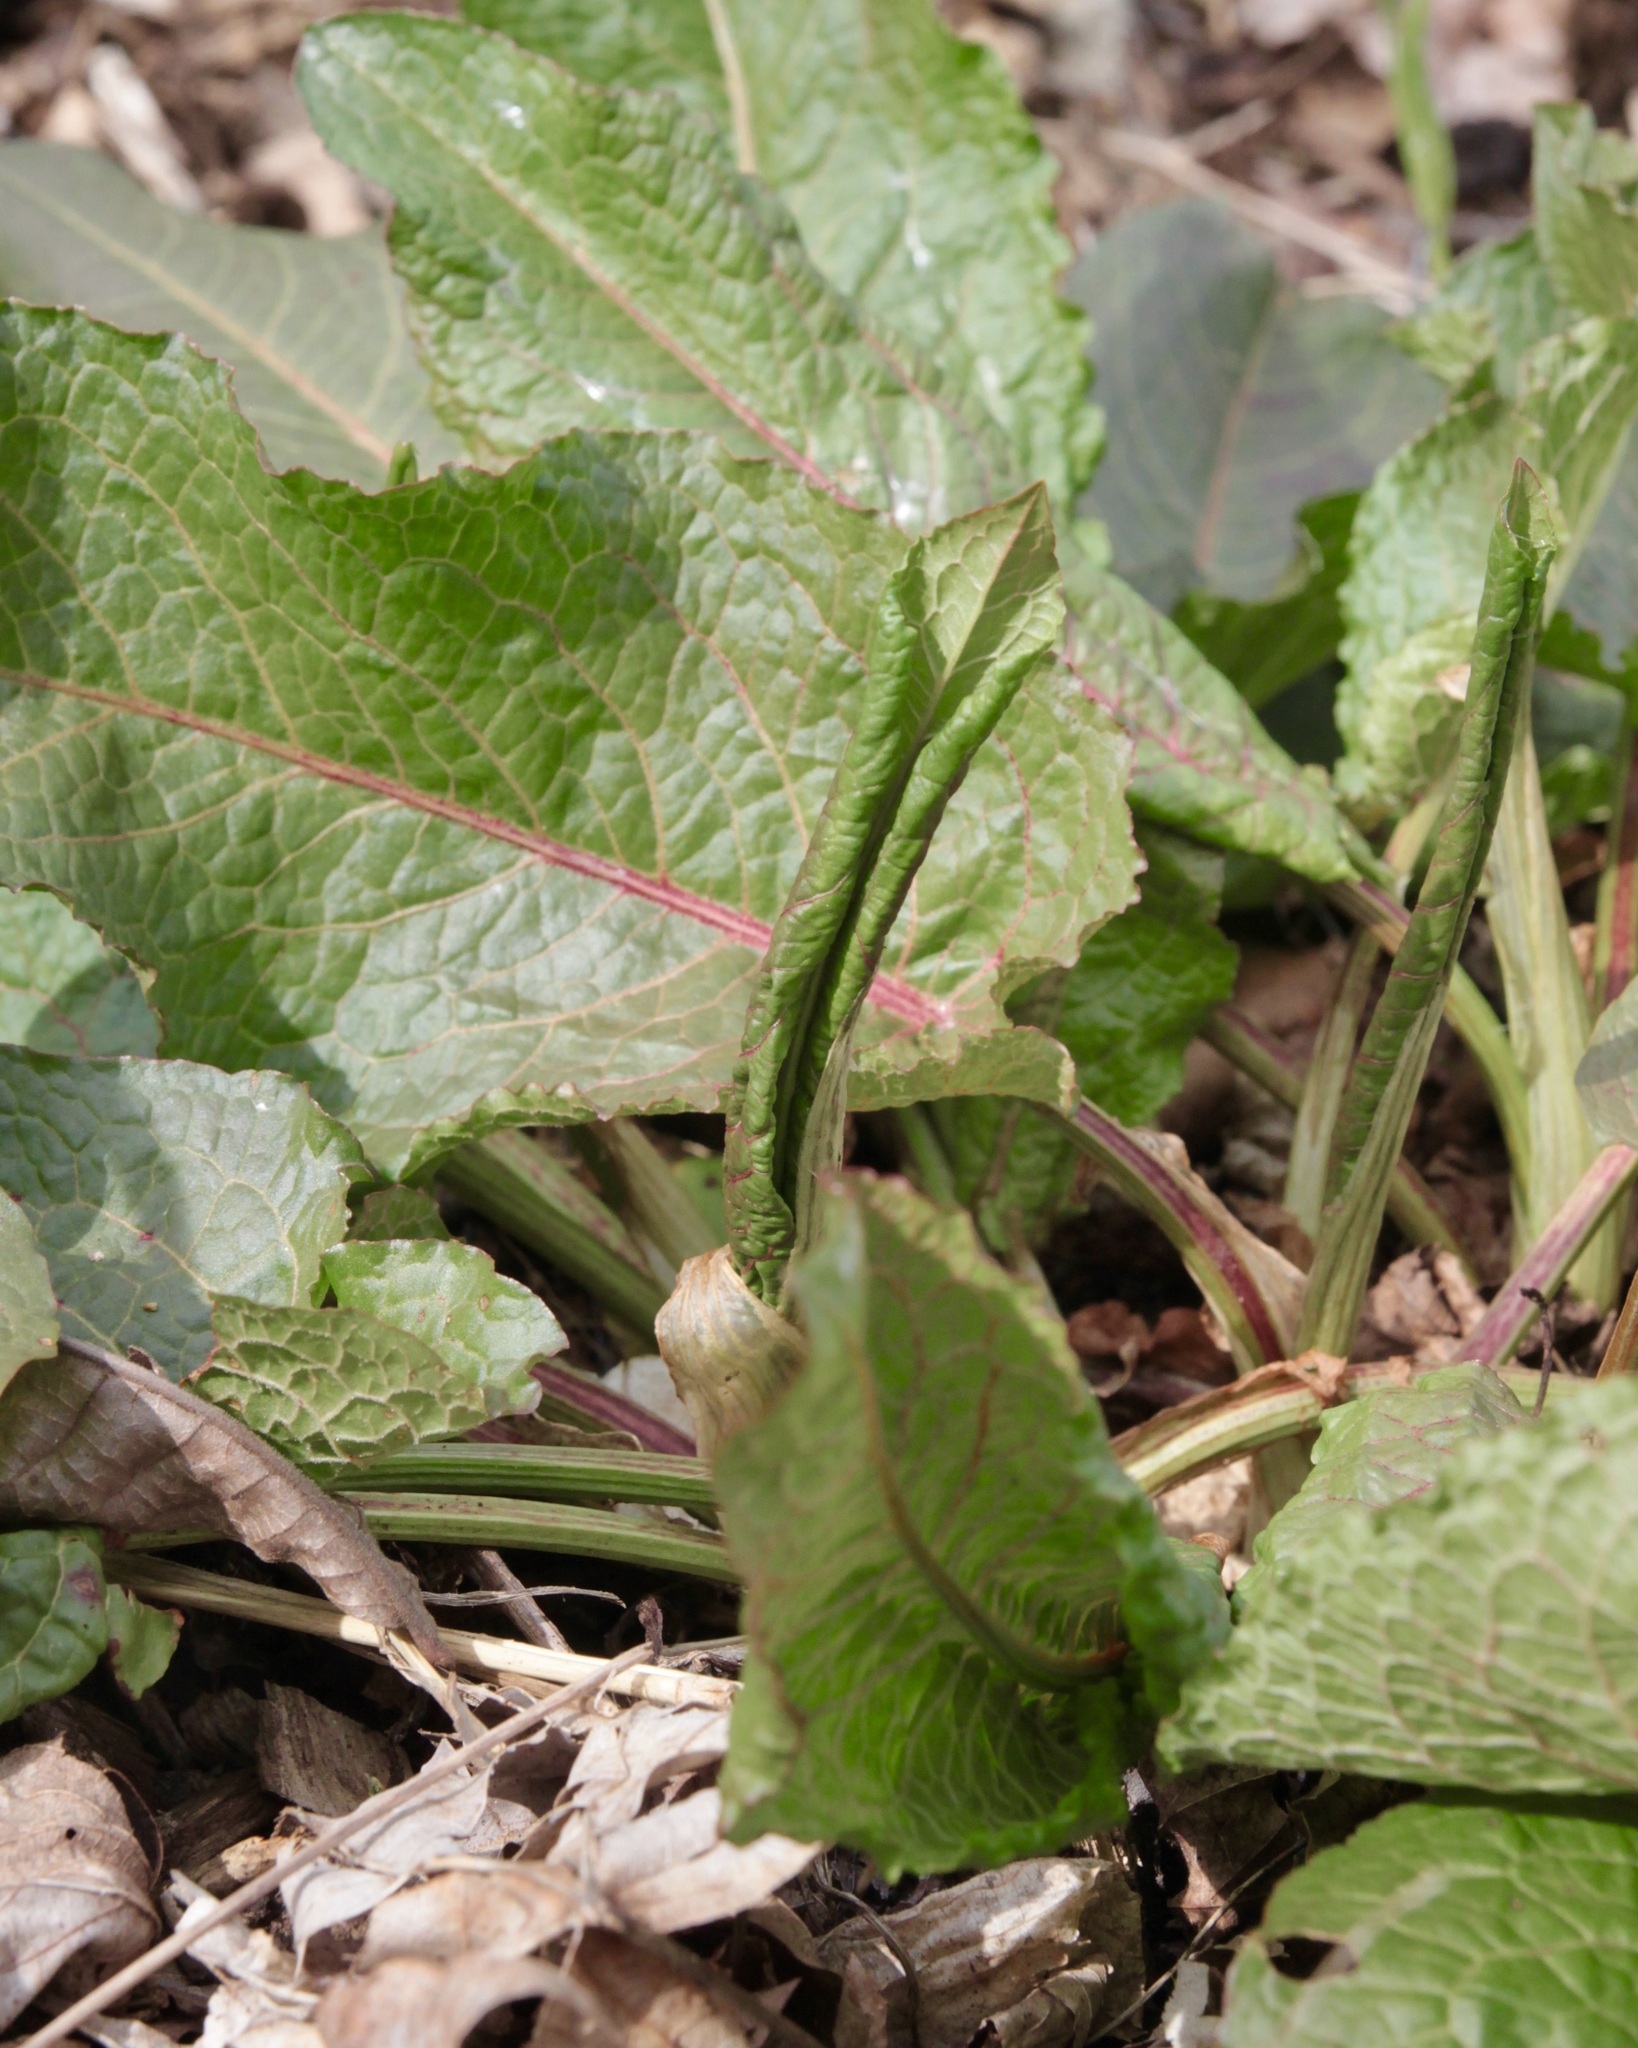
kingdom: Plantae
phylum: Tracheophyta
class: Magnoliopsida
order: Caryophyllales
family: Polygonaceae
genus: Rumex
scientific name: Rumex obtusifolius
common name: Bitter dock
